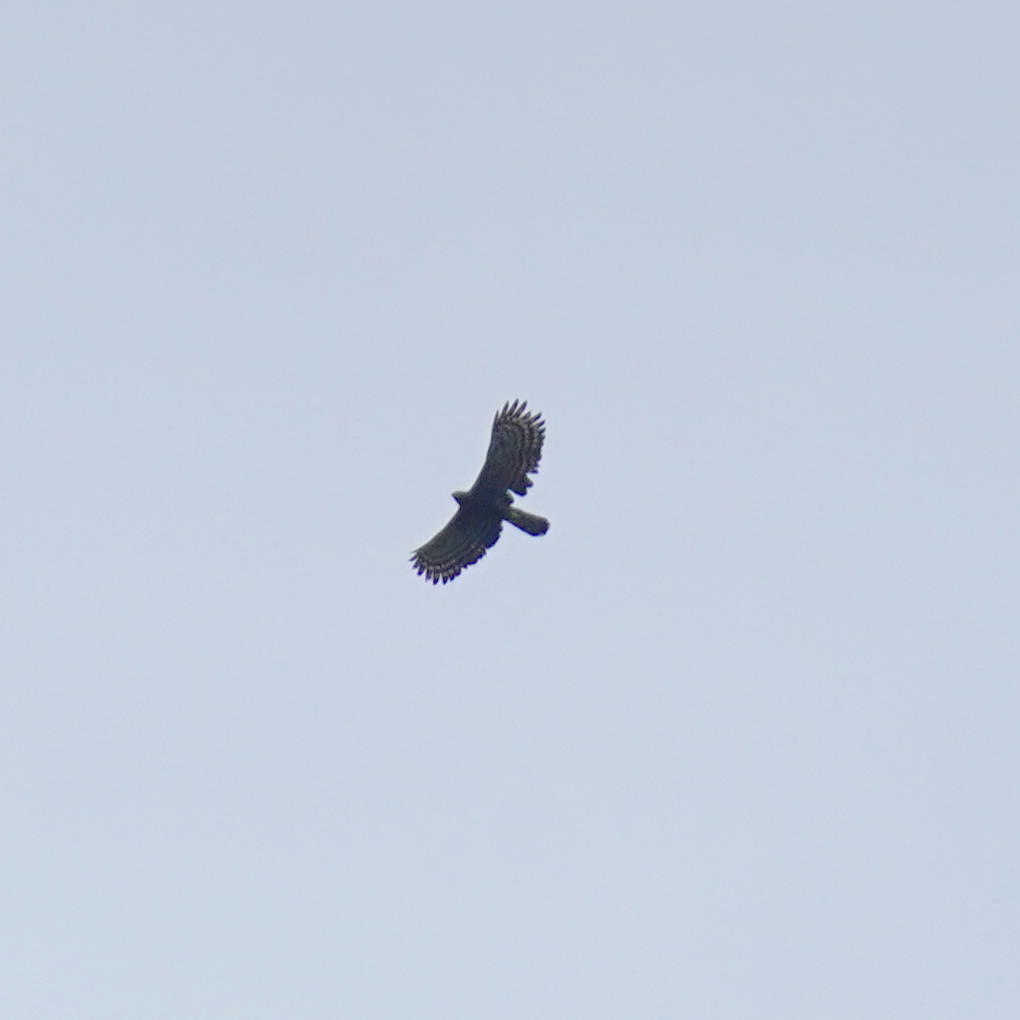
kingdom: Animalia
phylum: Chordata
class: Aves
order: Accipitriformes
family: Accipitridae
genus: Spizaetus
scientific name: Spizaetus tyrannus
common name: Black hawk-eagle
